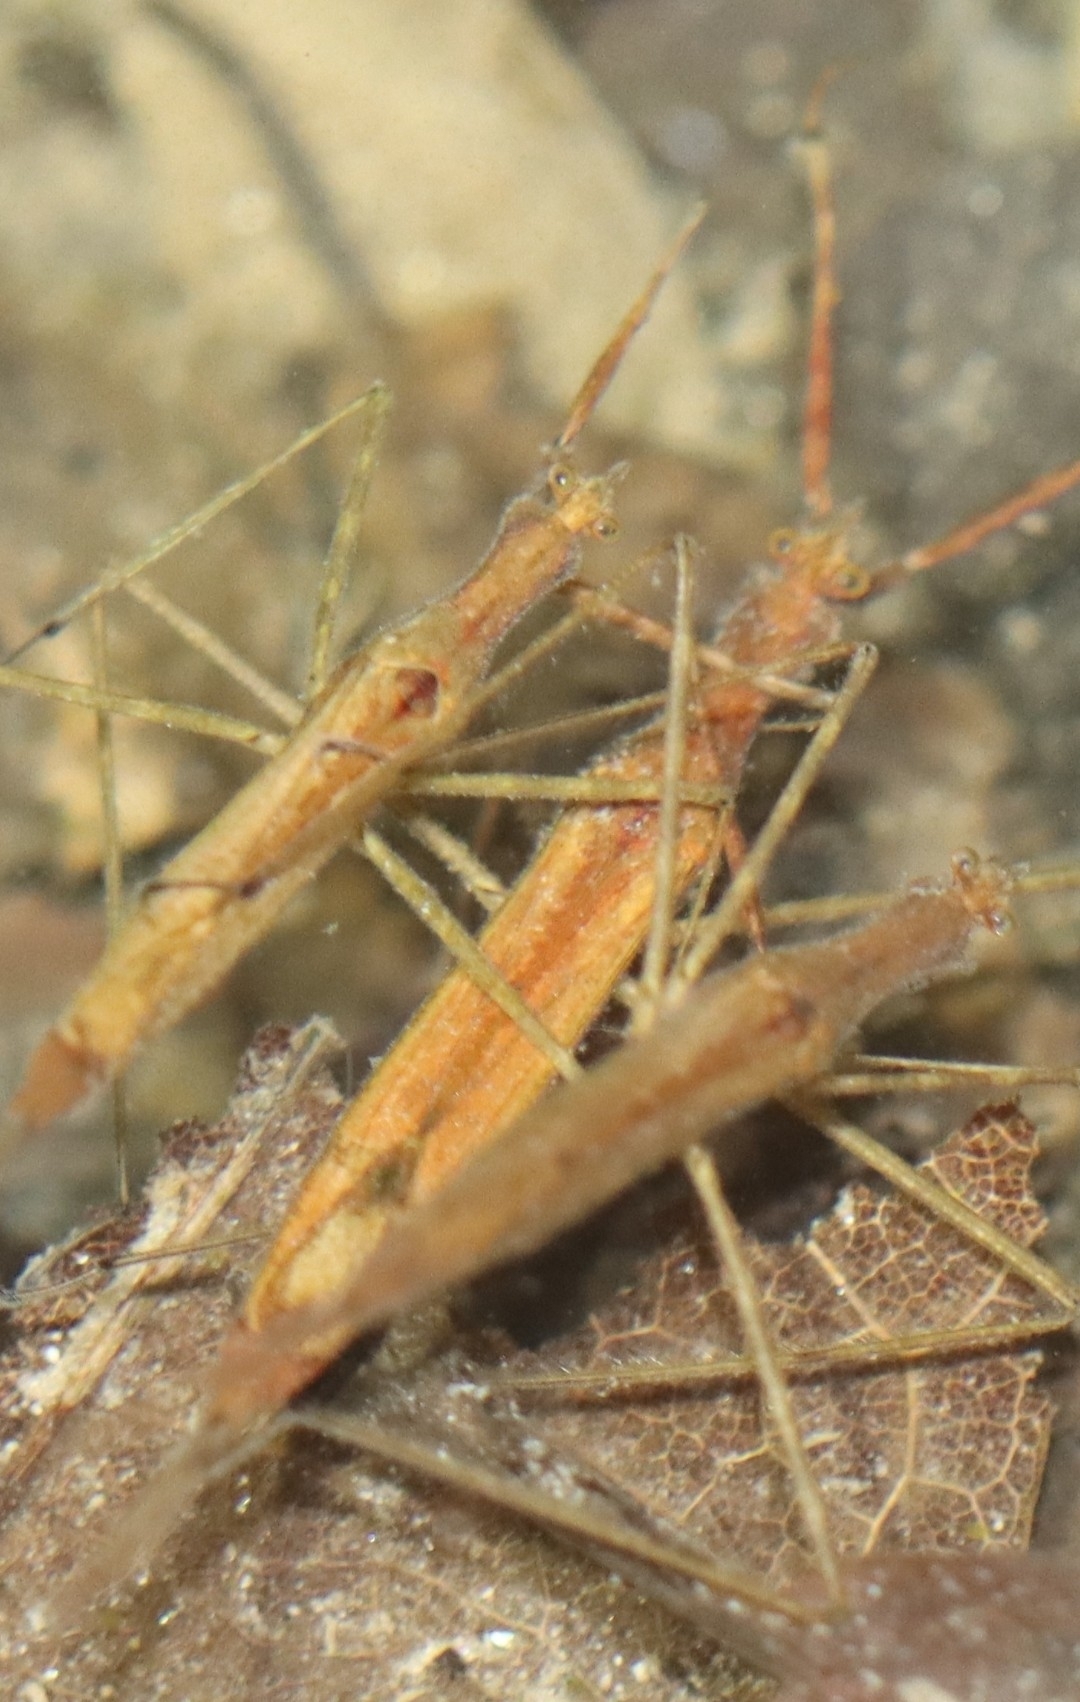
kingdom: Animalia
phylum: Arthropoda
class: Insecta
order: Hemiptera
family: Nepidae
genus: Ranatra
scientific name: Ranatra
